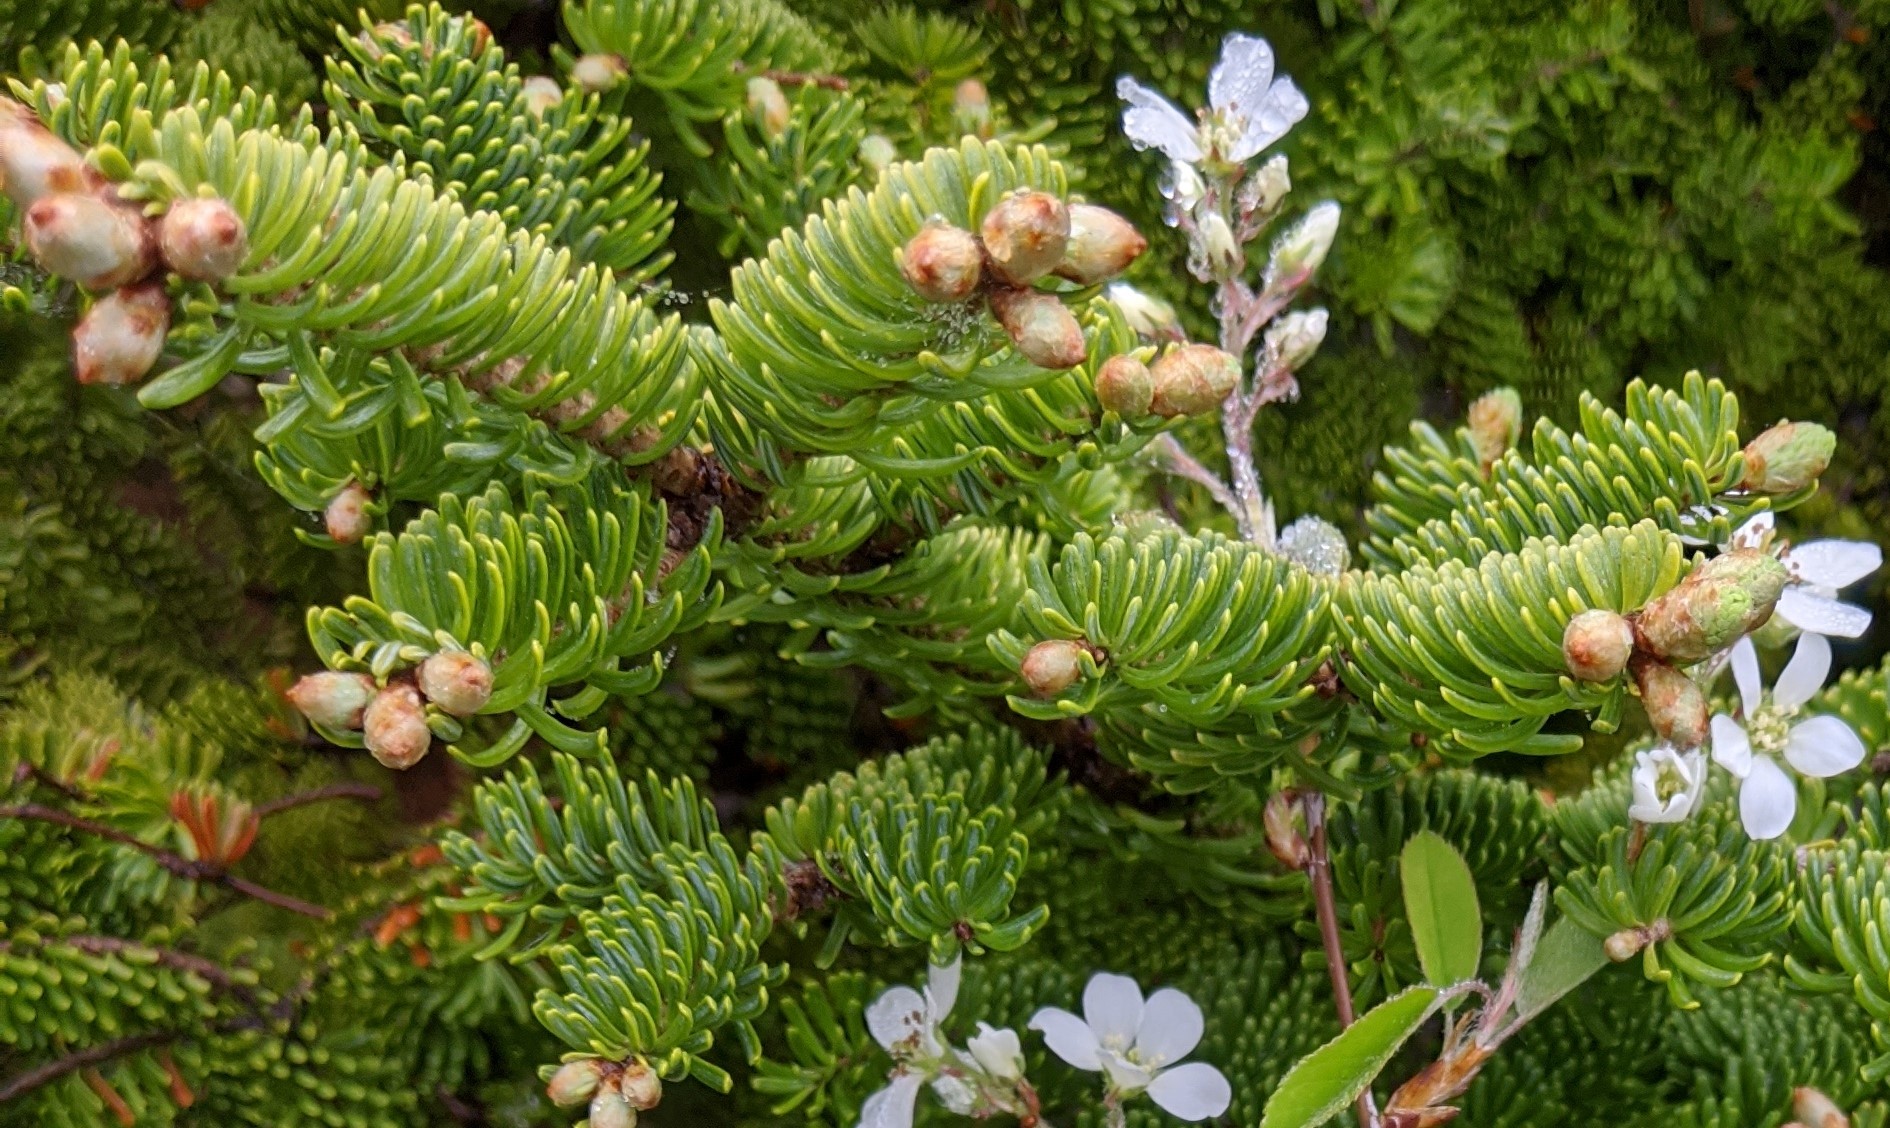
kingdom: Plantae
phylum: Tracheophyta
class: Pinopsida
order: Pinales
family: Pinaceae
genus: Abies
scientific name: Abies balsamea
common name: Balsam fir
